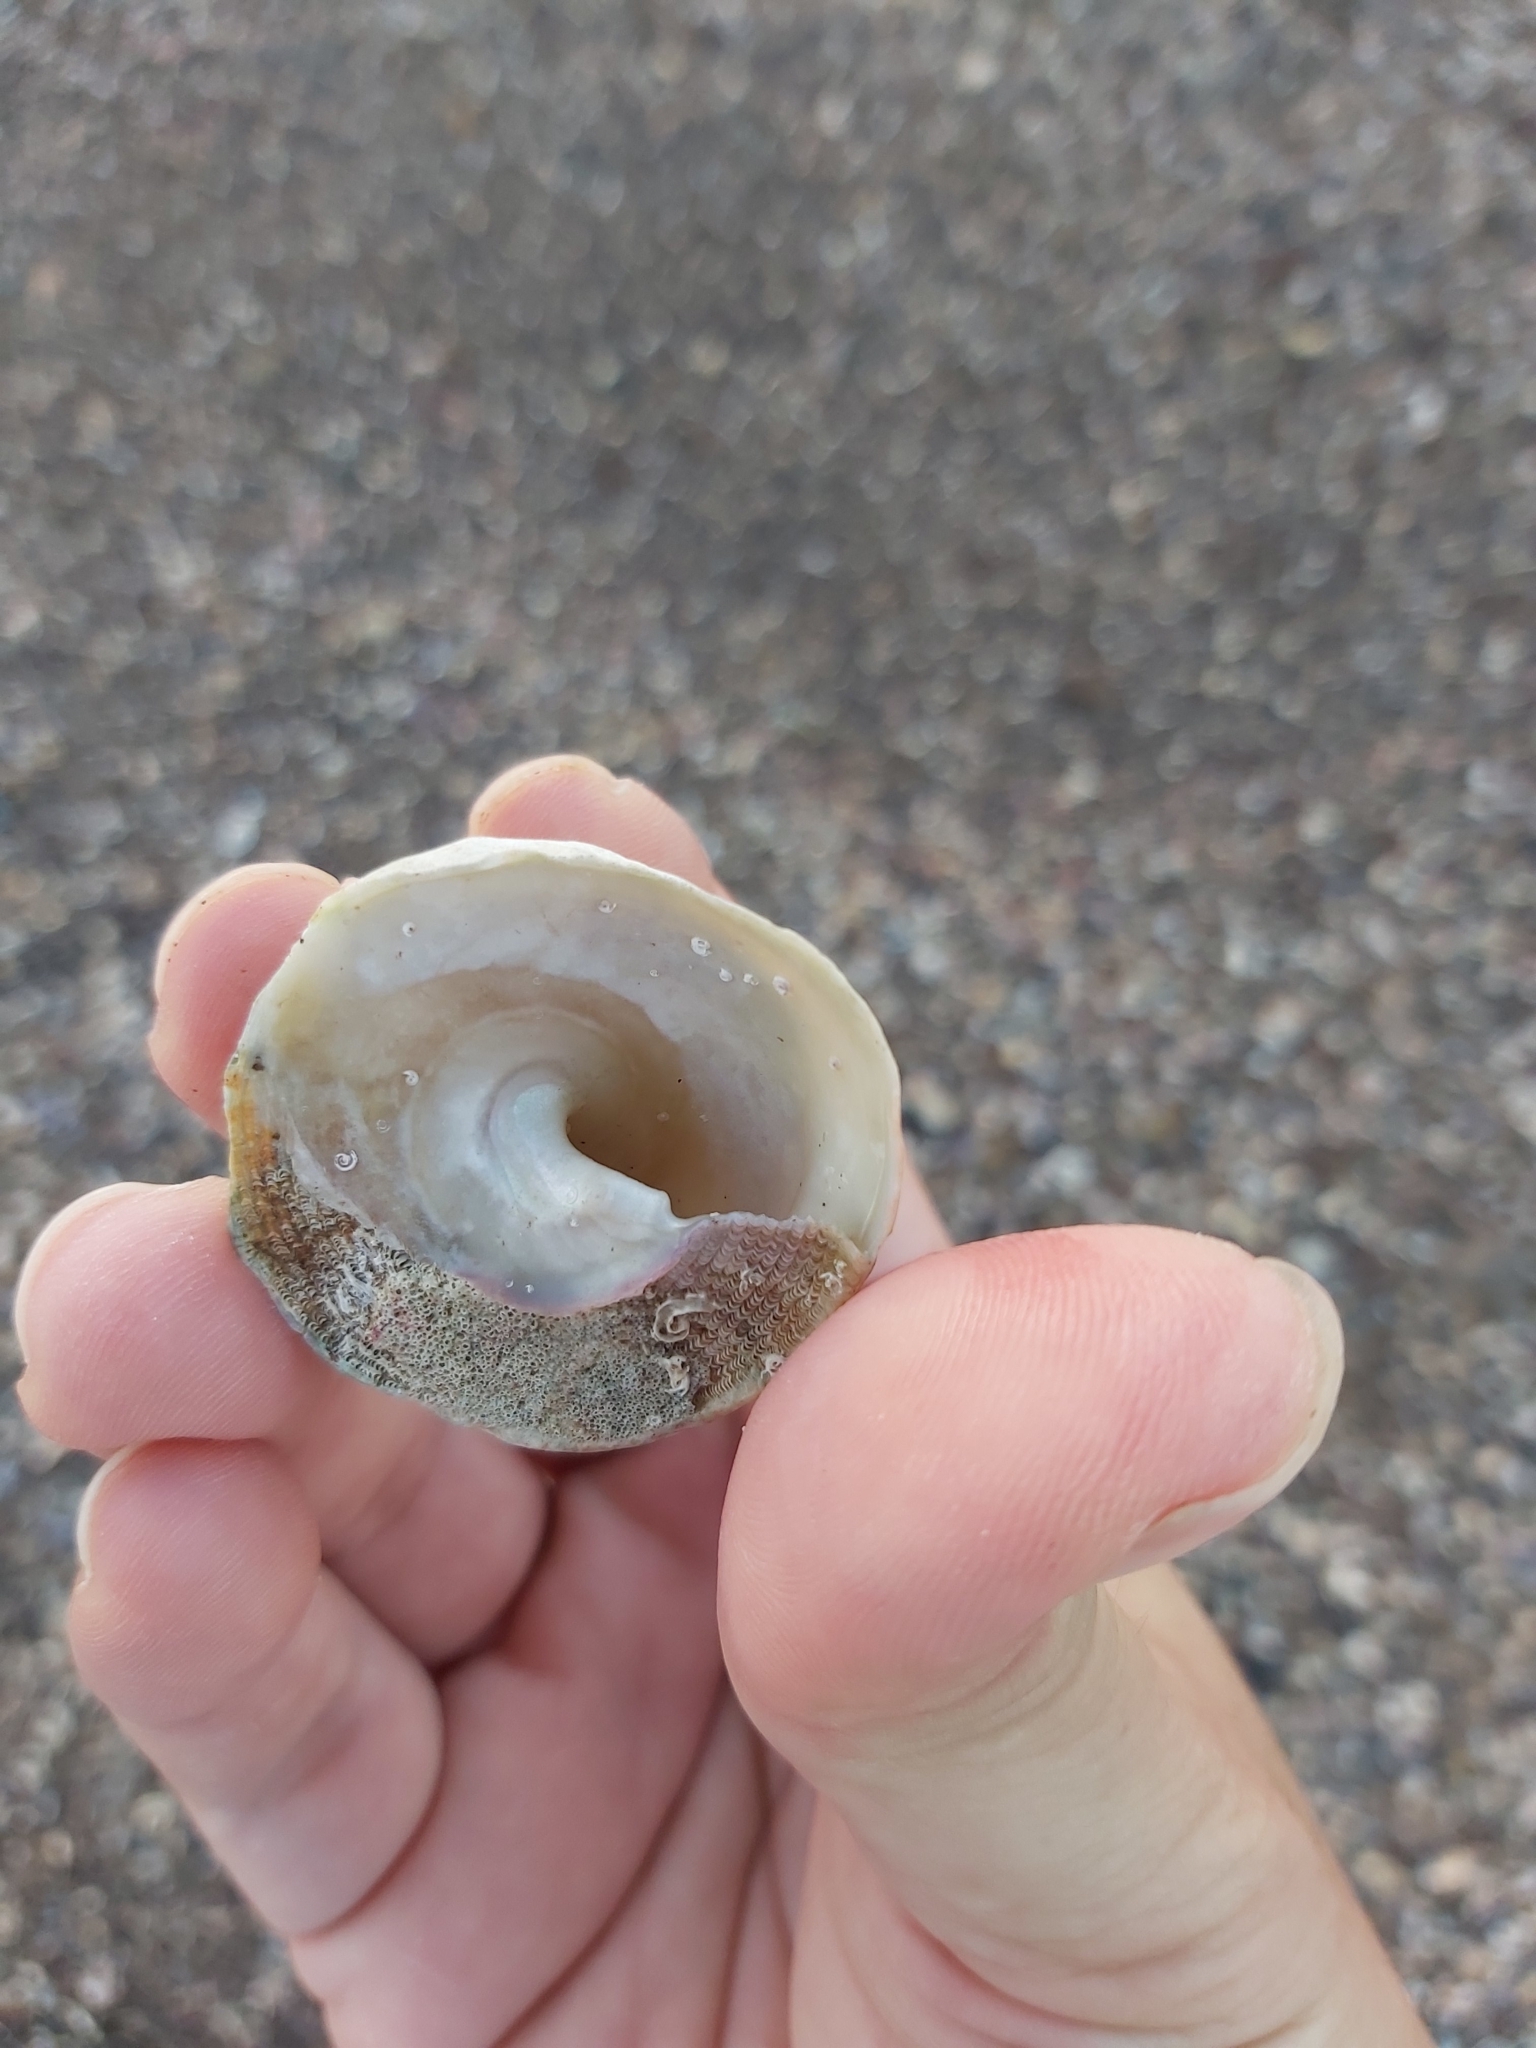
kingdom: Animalia
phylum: Mollusca
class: Gastropoda
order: Trochida
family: Turbinidae
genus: Astralium
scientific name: Astralium tentoriiforme
